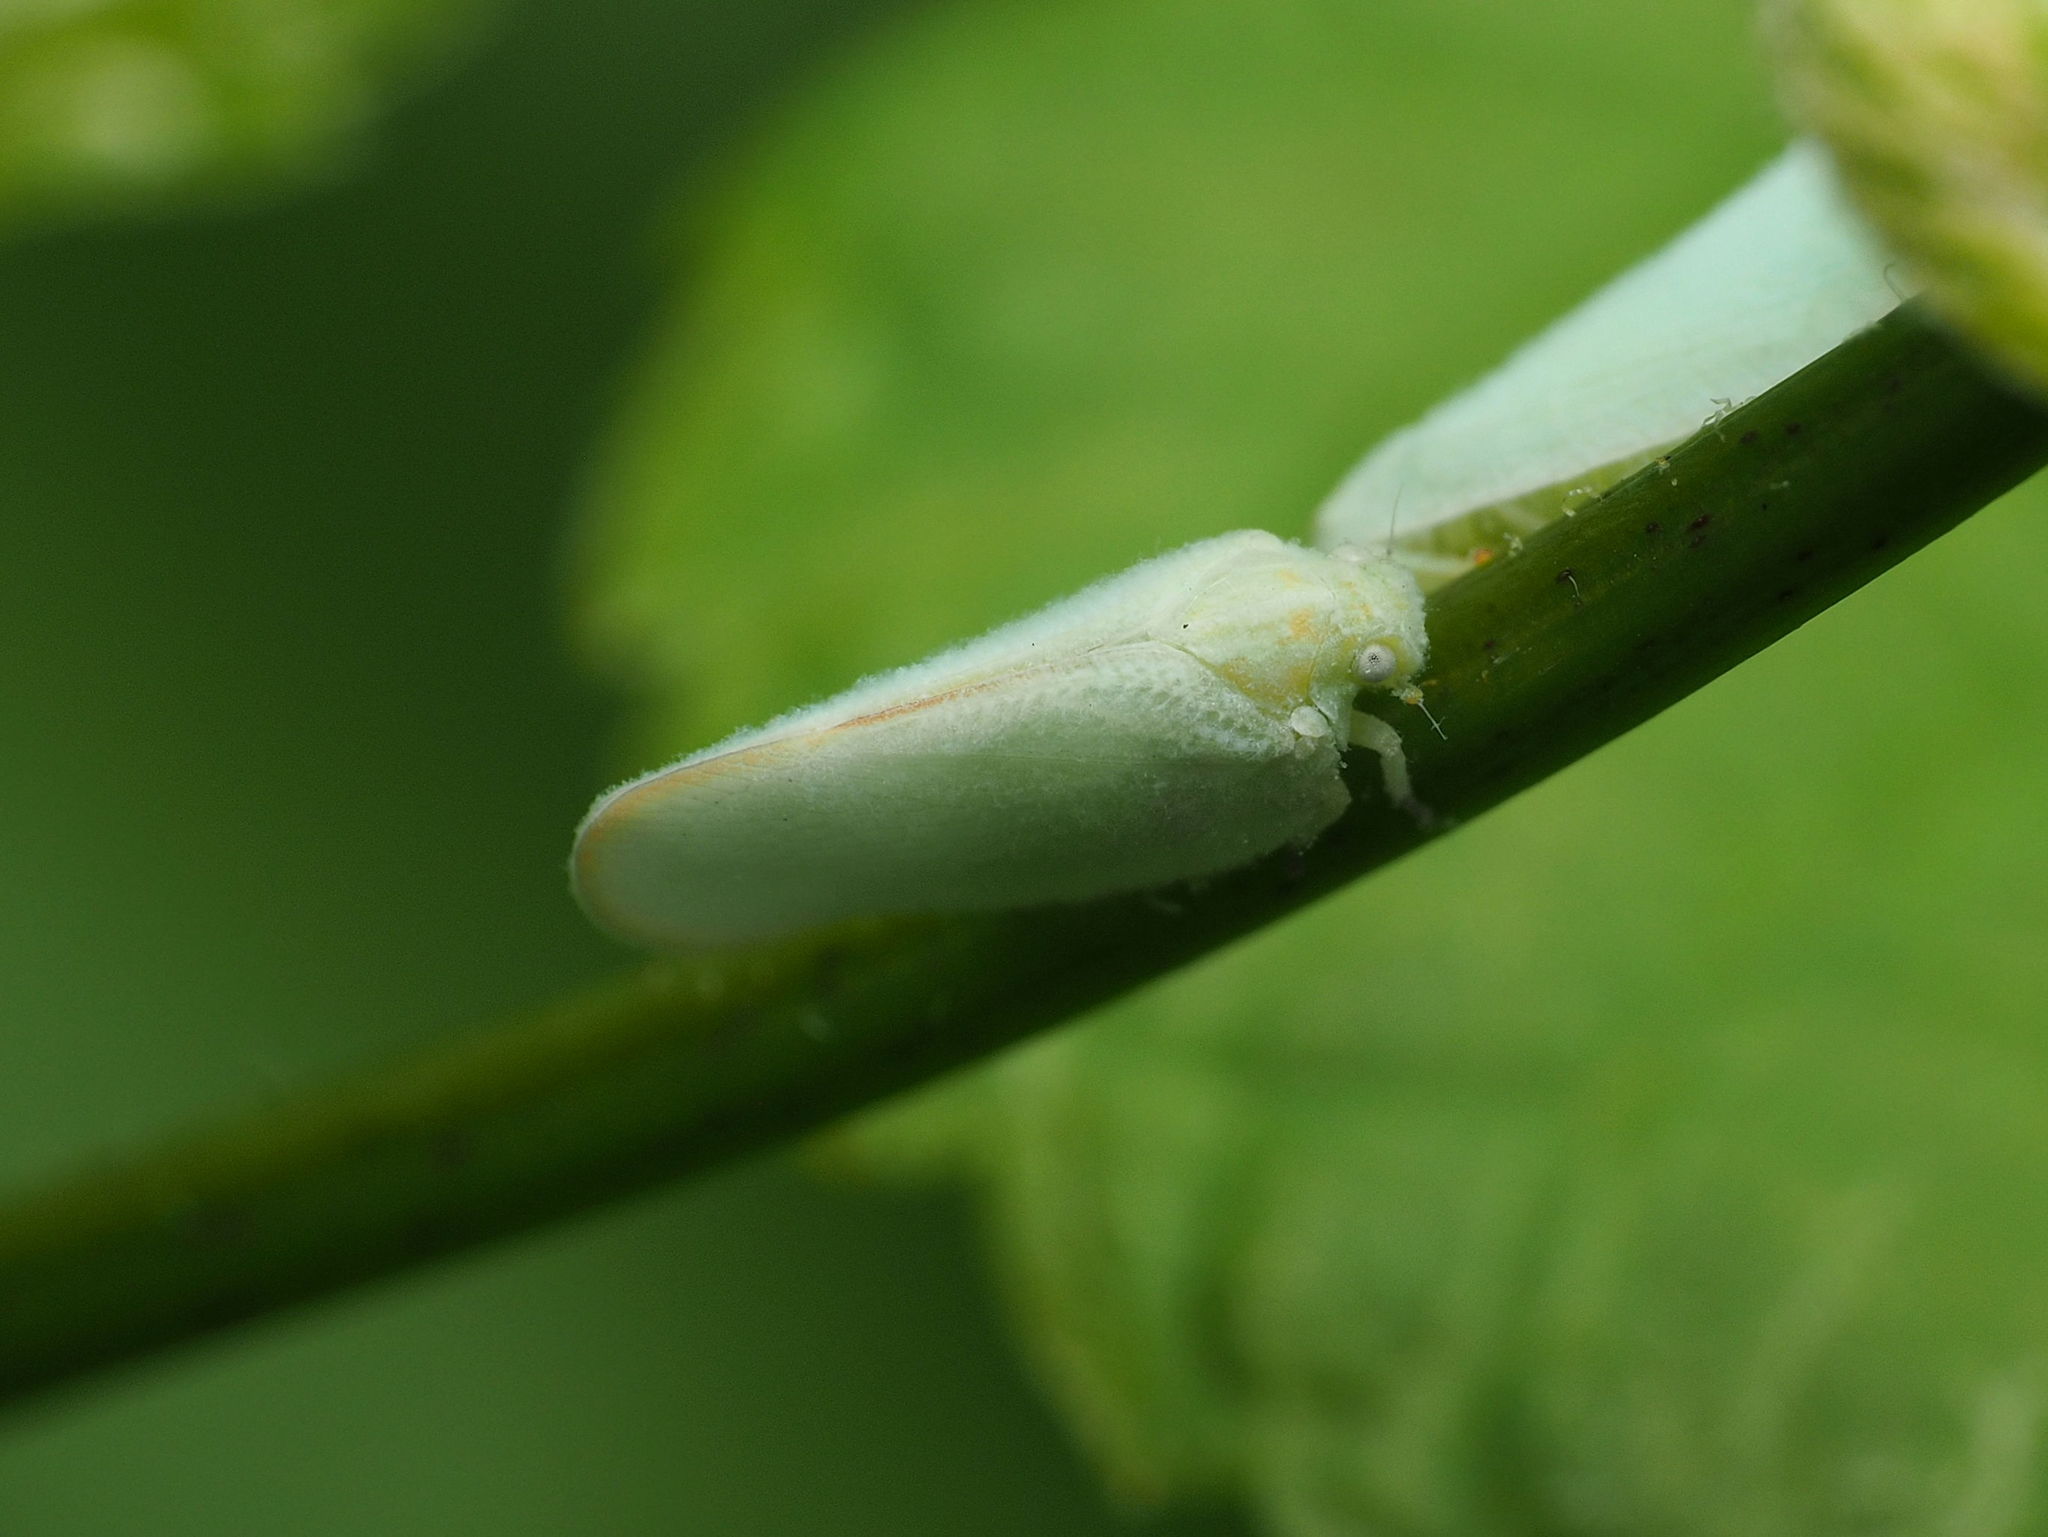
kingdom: Animalia
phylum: Arthropoda
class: Insecta
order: Hemiptera
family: Flatidae
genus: Ormenoides
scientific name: Ormenoides venusta
